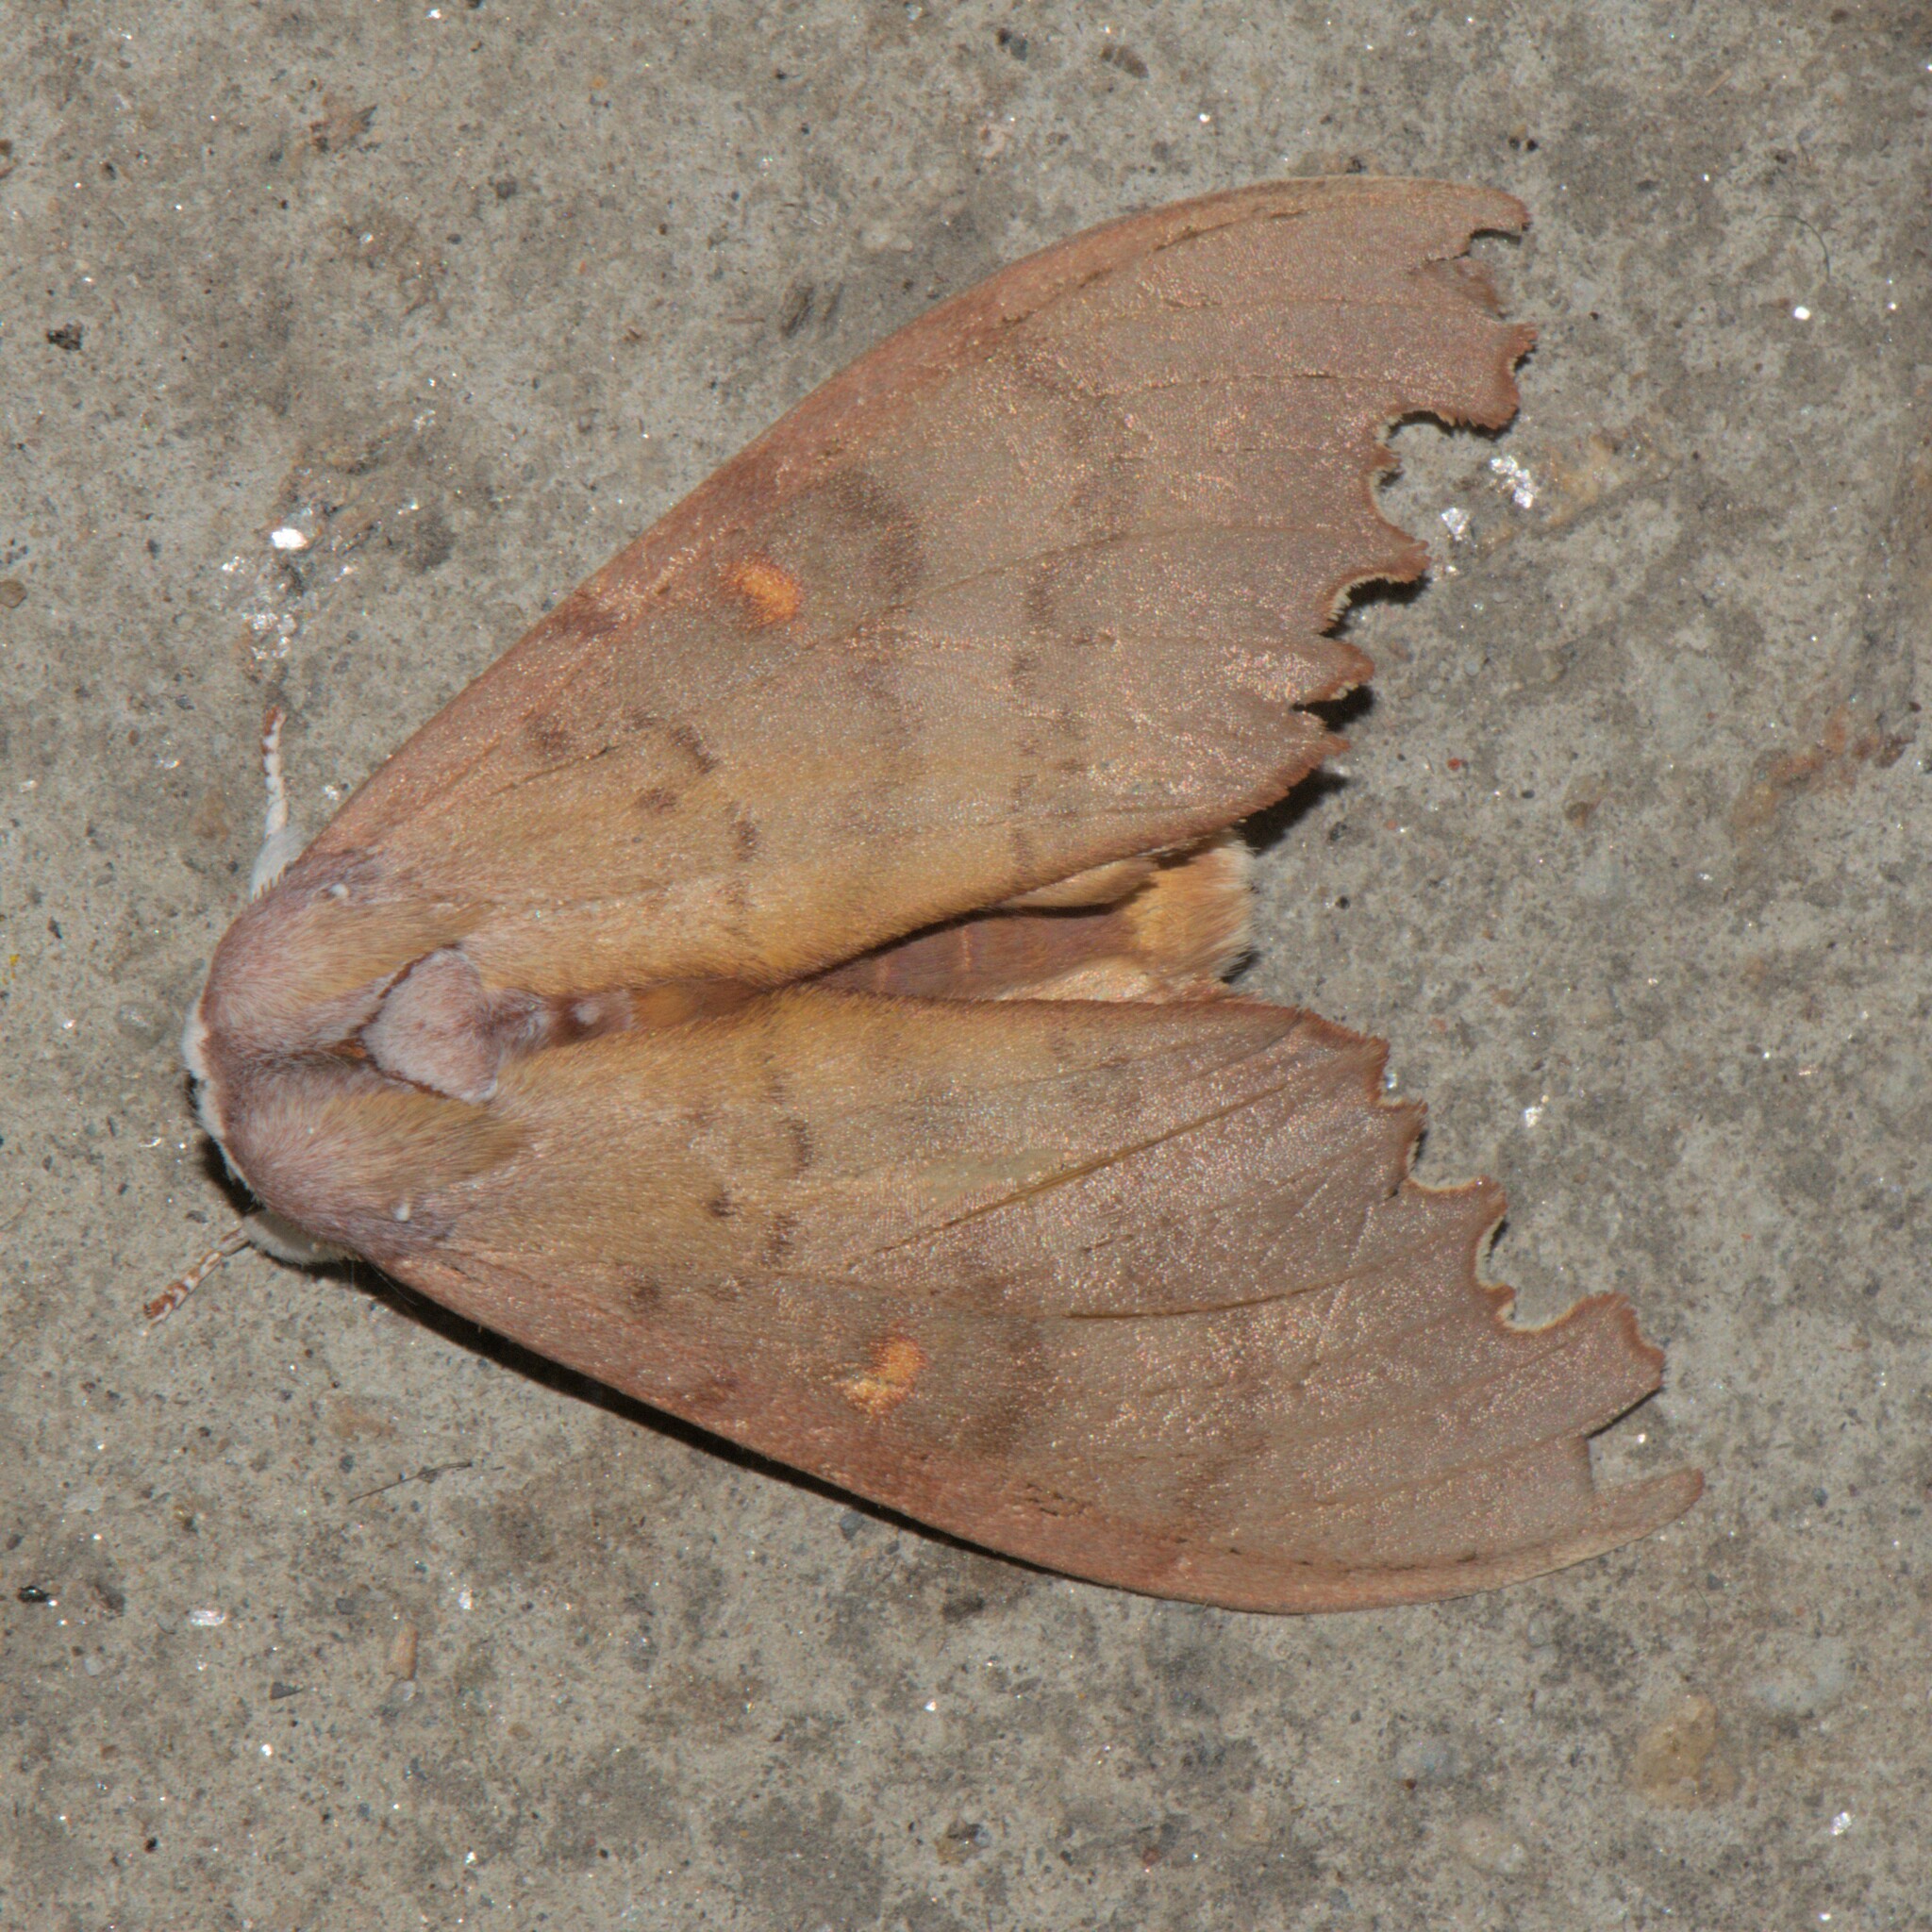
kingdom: Animalia
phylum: Arthropoda
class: Insecta
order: Lepidoptera
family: Notodontidae
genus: Euhampsonia
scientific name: Euhampsonia niveiceps
